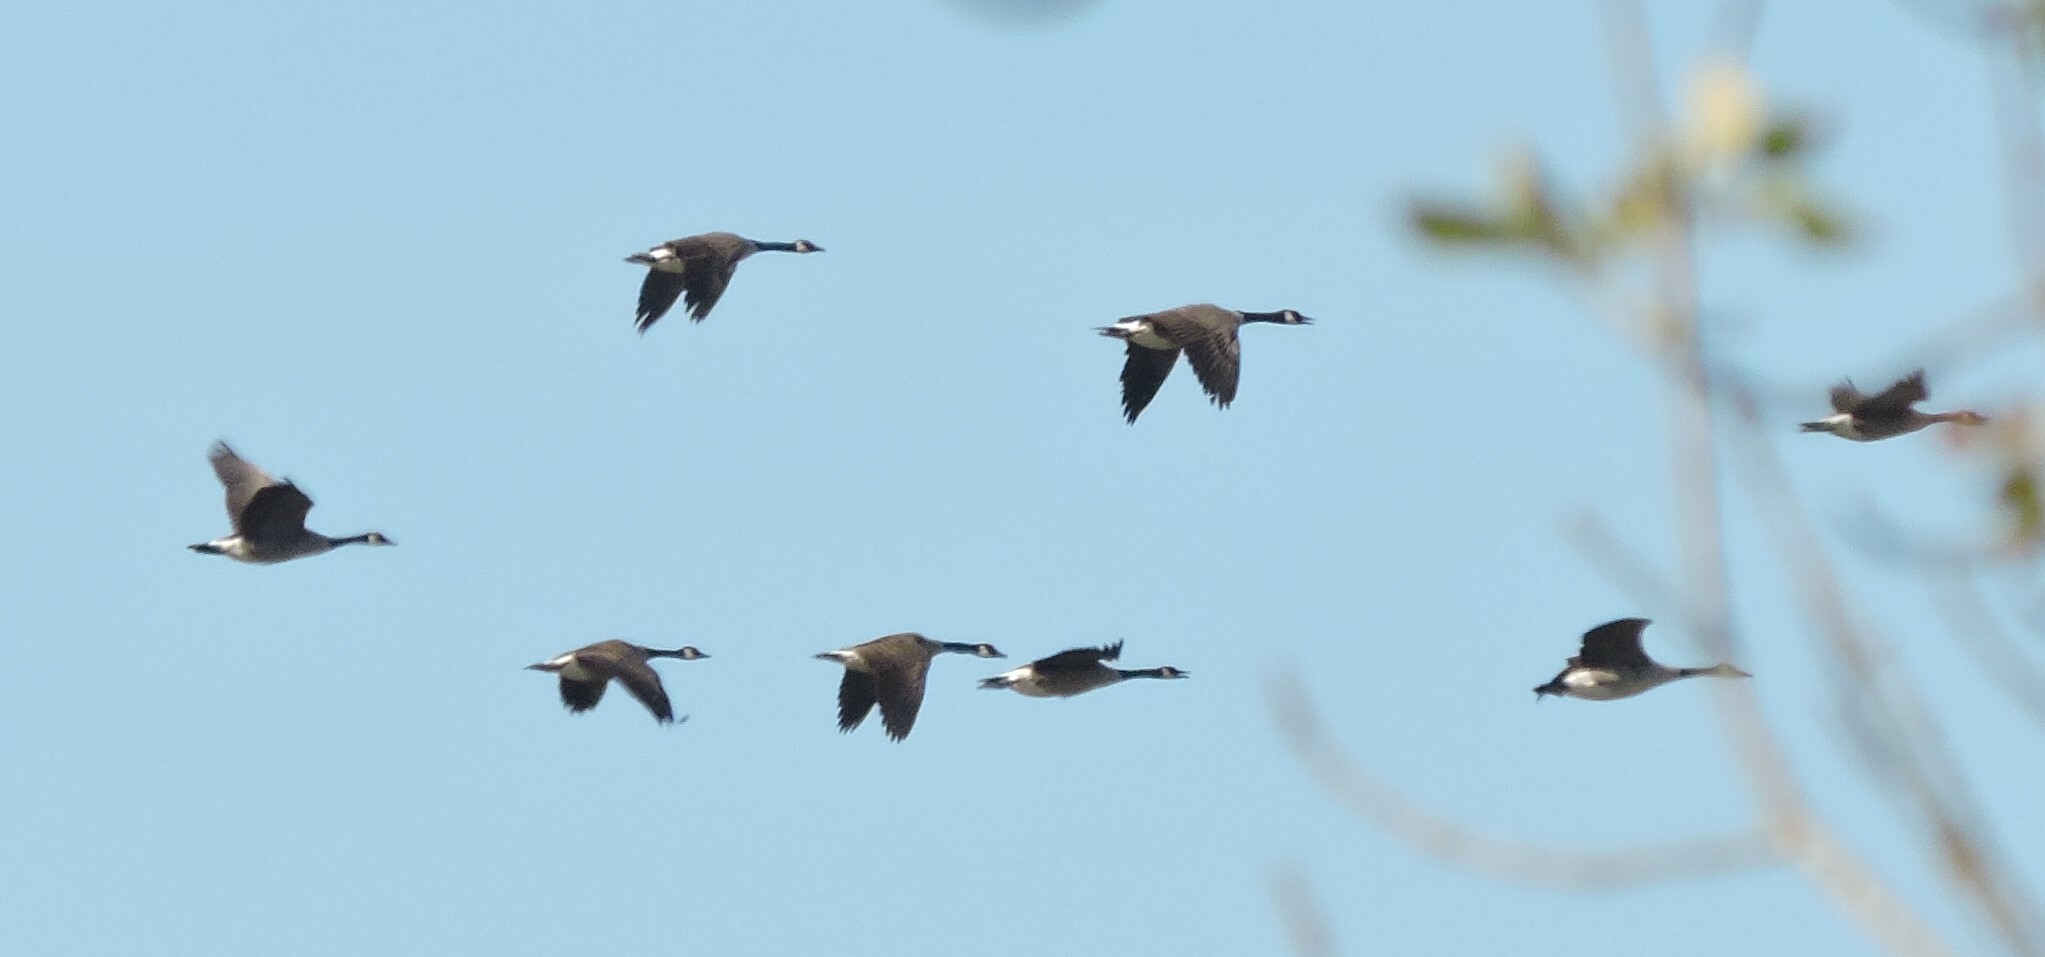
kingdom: Animalia
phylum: Chordata
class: Aves
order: Anseriformes
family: Anatidae
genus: Branta
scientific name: Branta canadensis
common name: Canada goose
